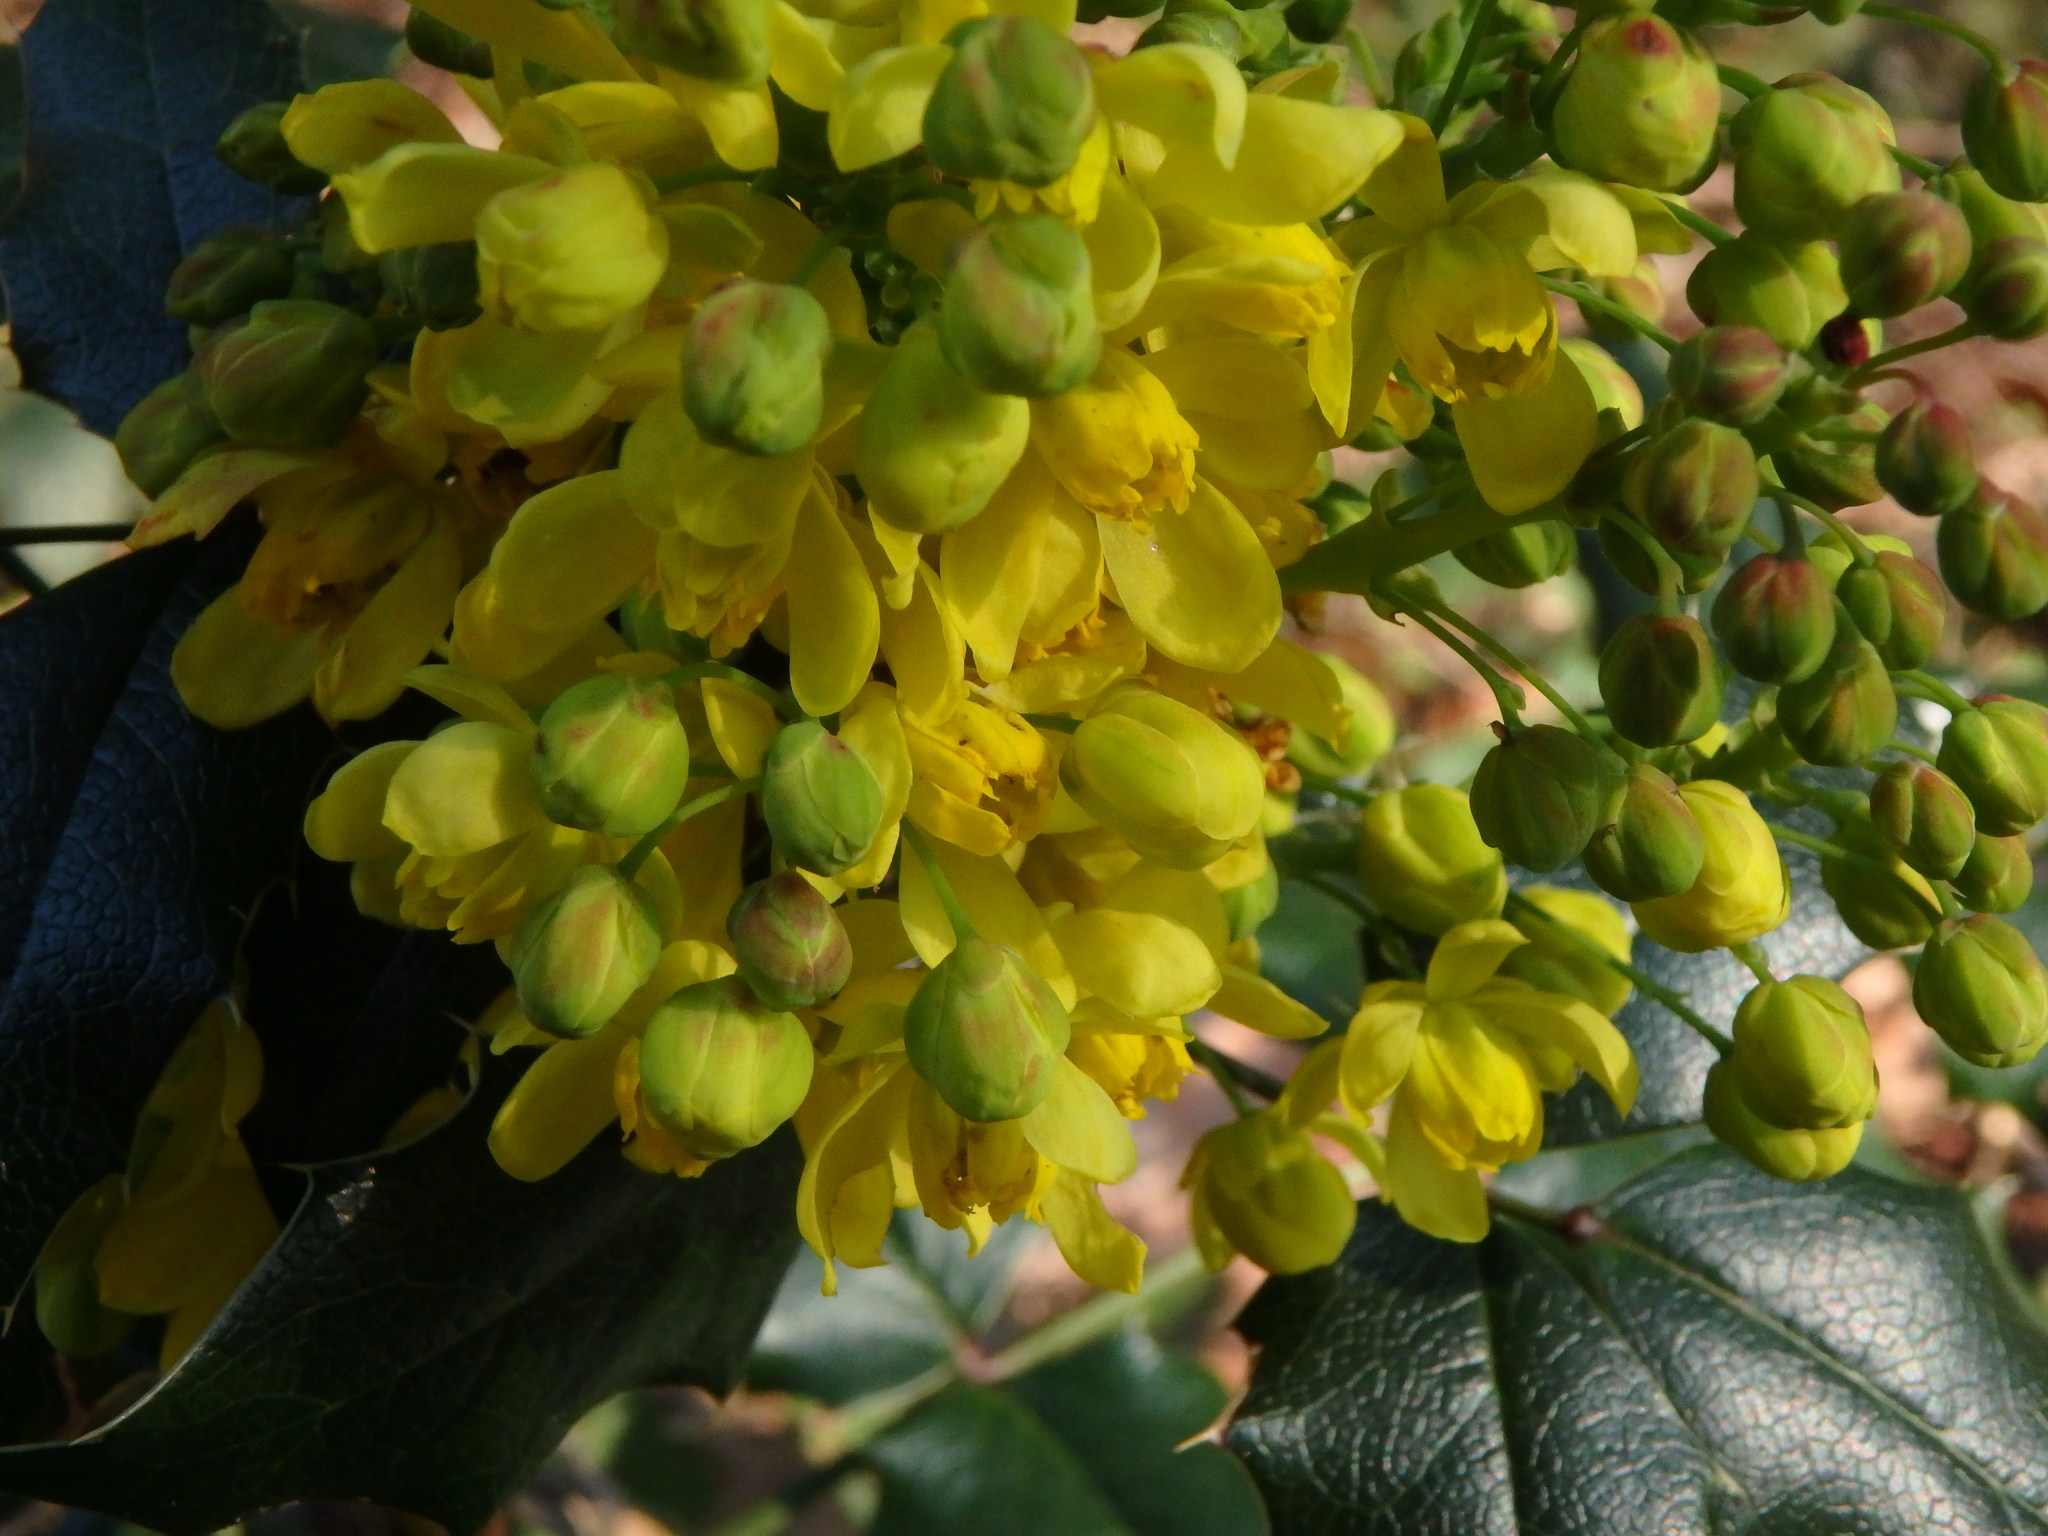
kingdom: Plantae
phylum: Tracheophyta
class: Magnoliopsida
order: Ranunculales
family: Berberidaceae
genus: Mahonia
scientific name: Mahonia aquifolium
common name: Oregon-grape
